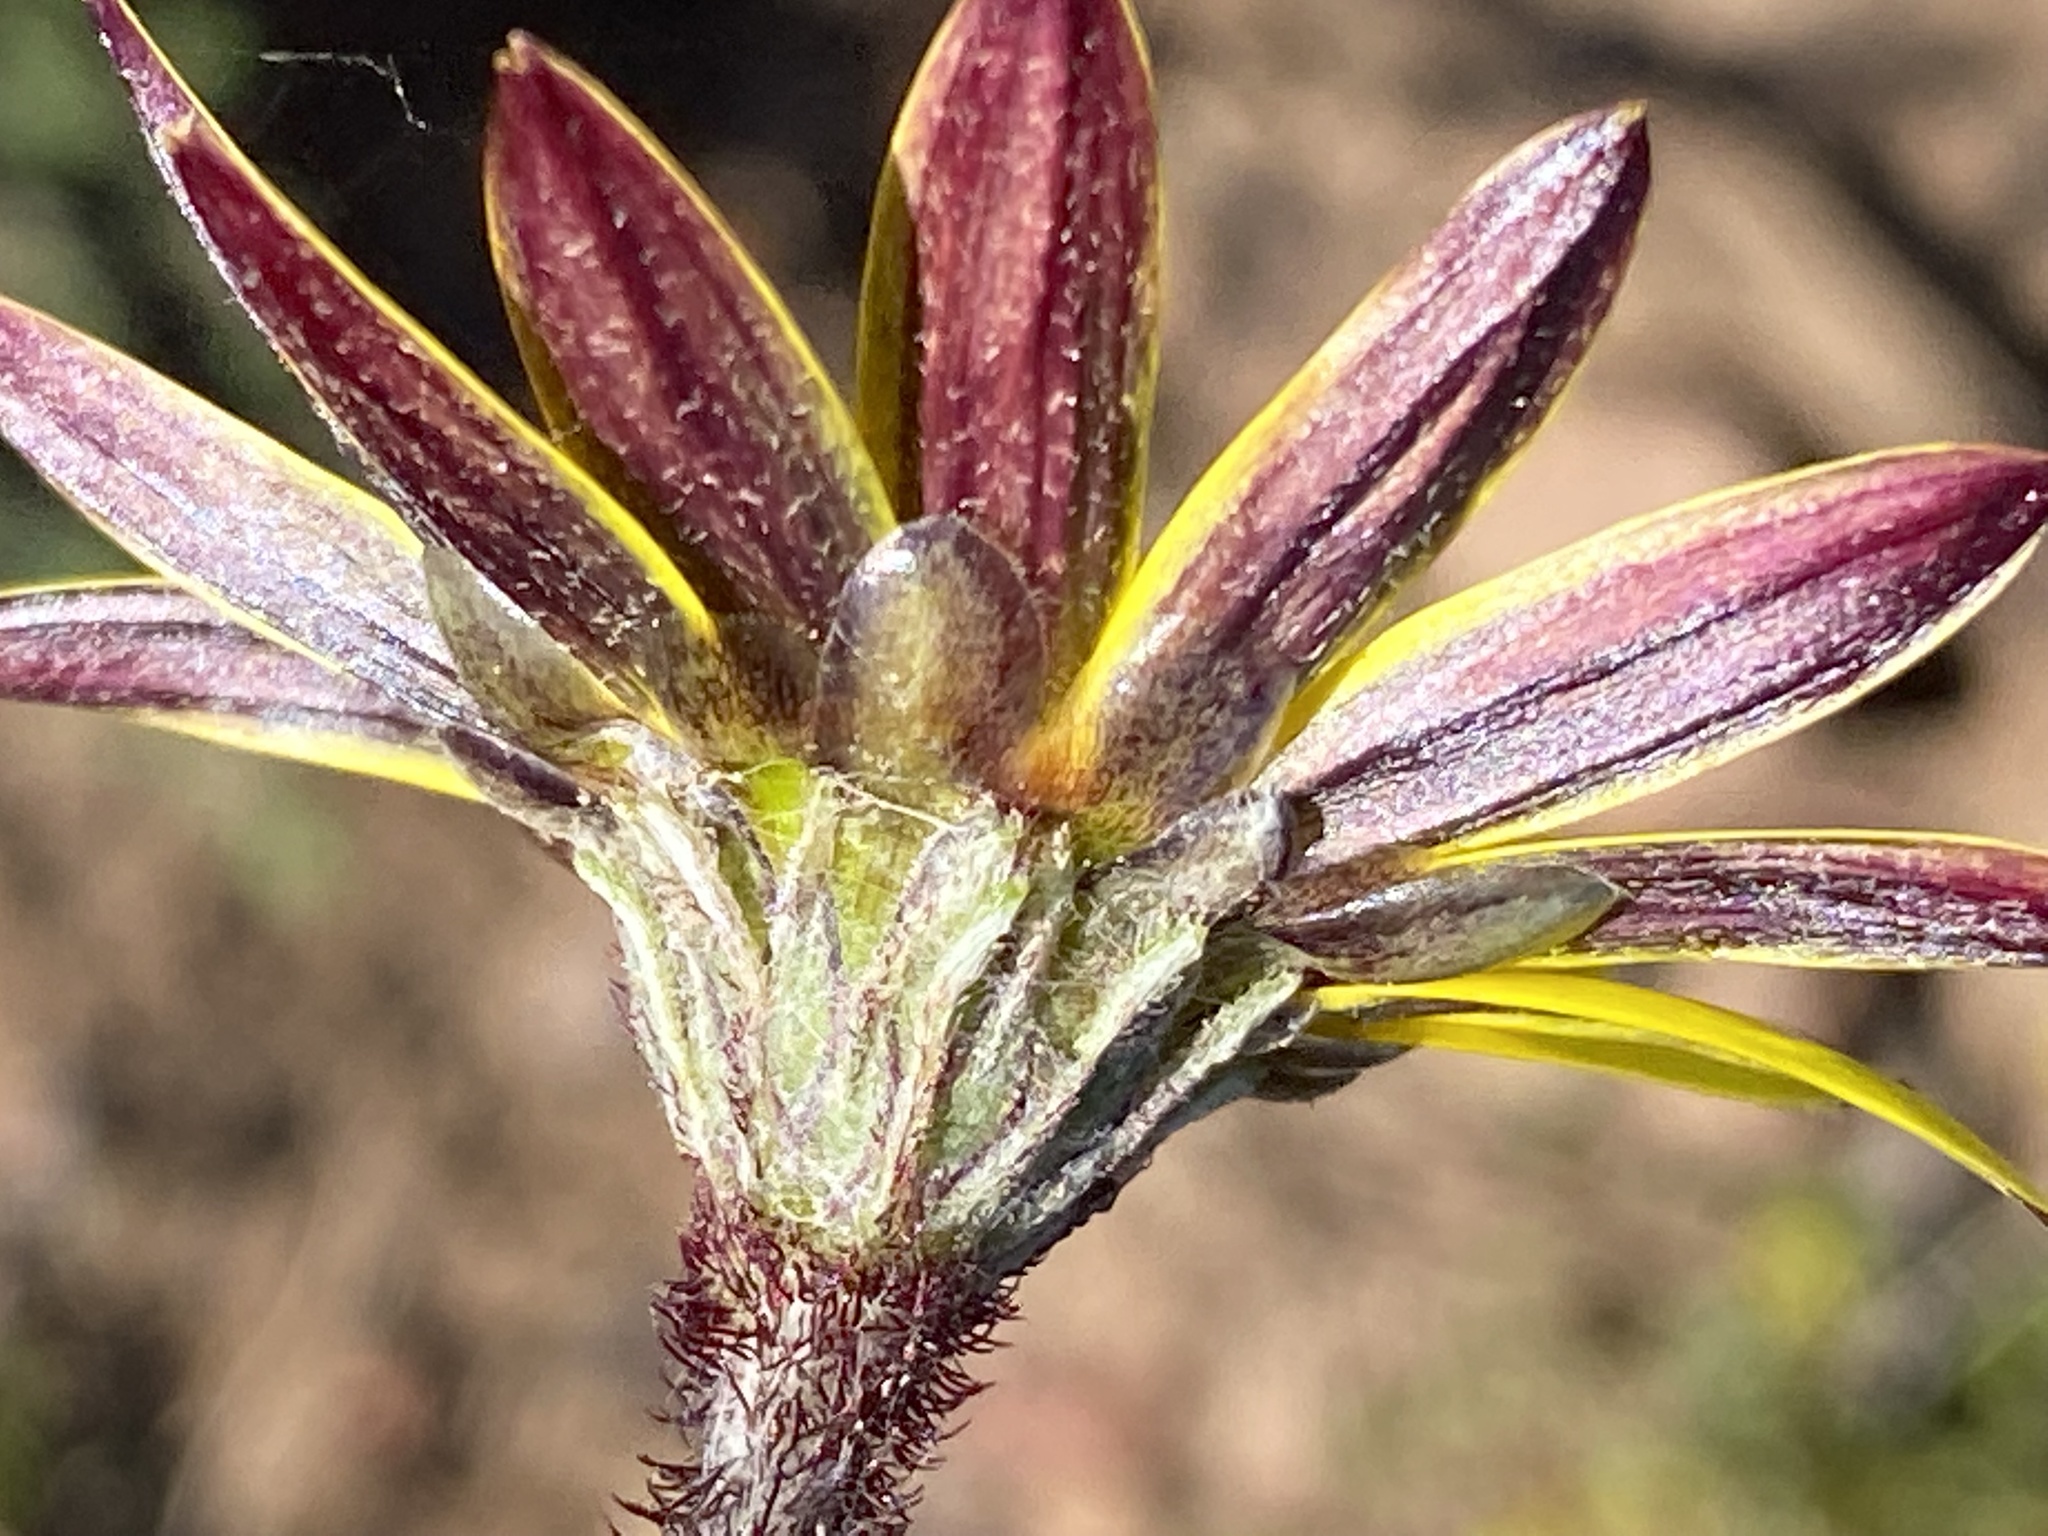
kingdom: Plantae
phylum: Tracheophyta
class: Magnoliopsida
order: Asterales
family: Asteraceae
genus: Arctotheca
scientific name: Arctotheca prostrata
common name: Capeweed
